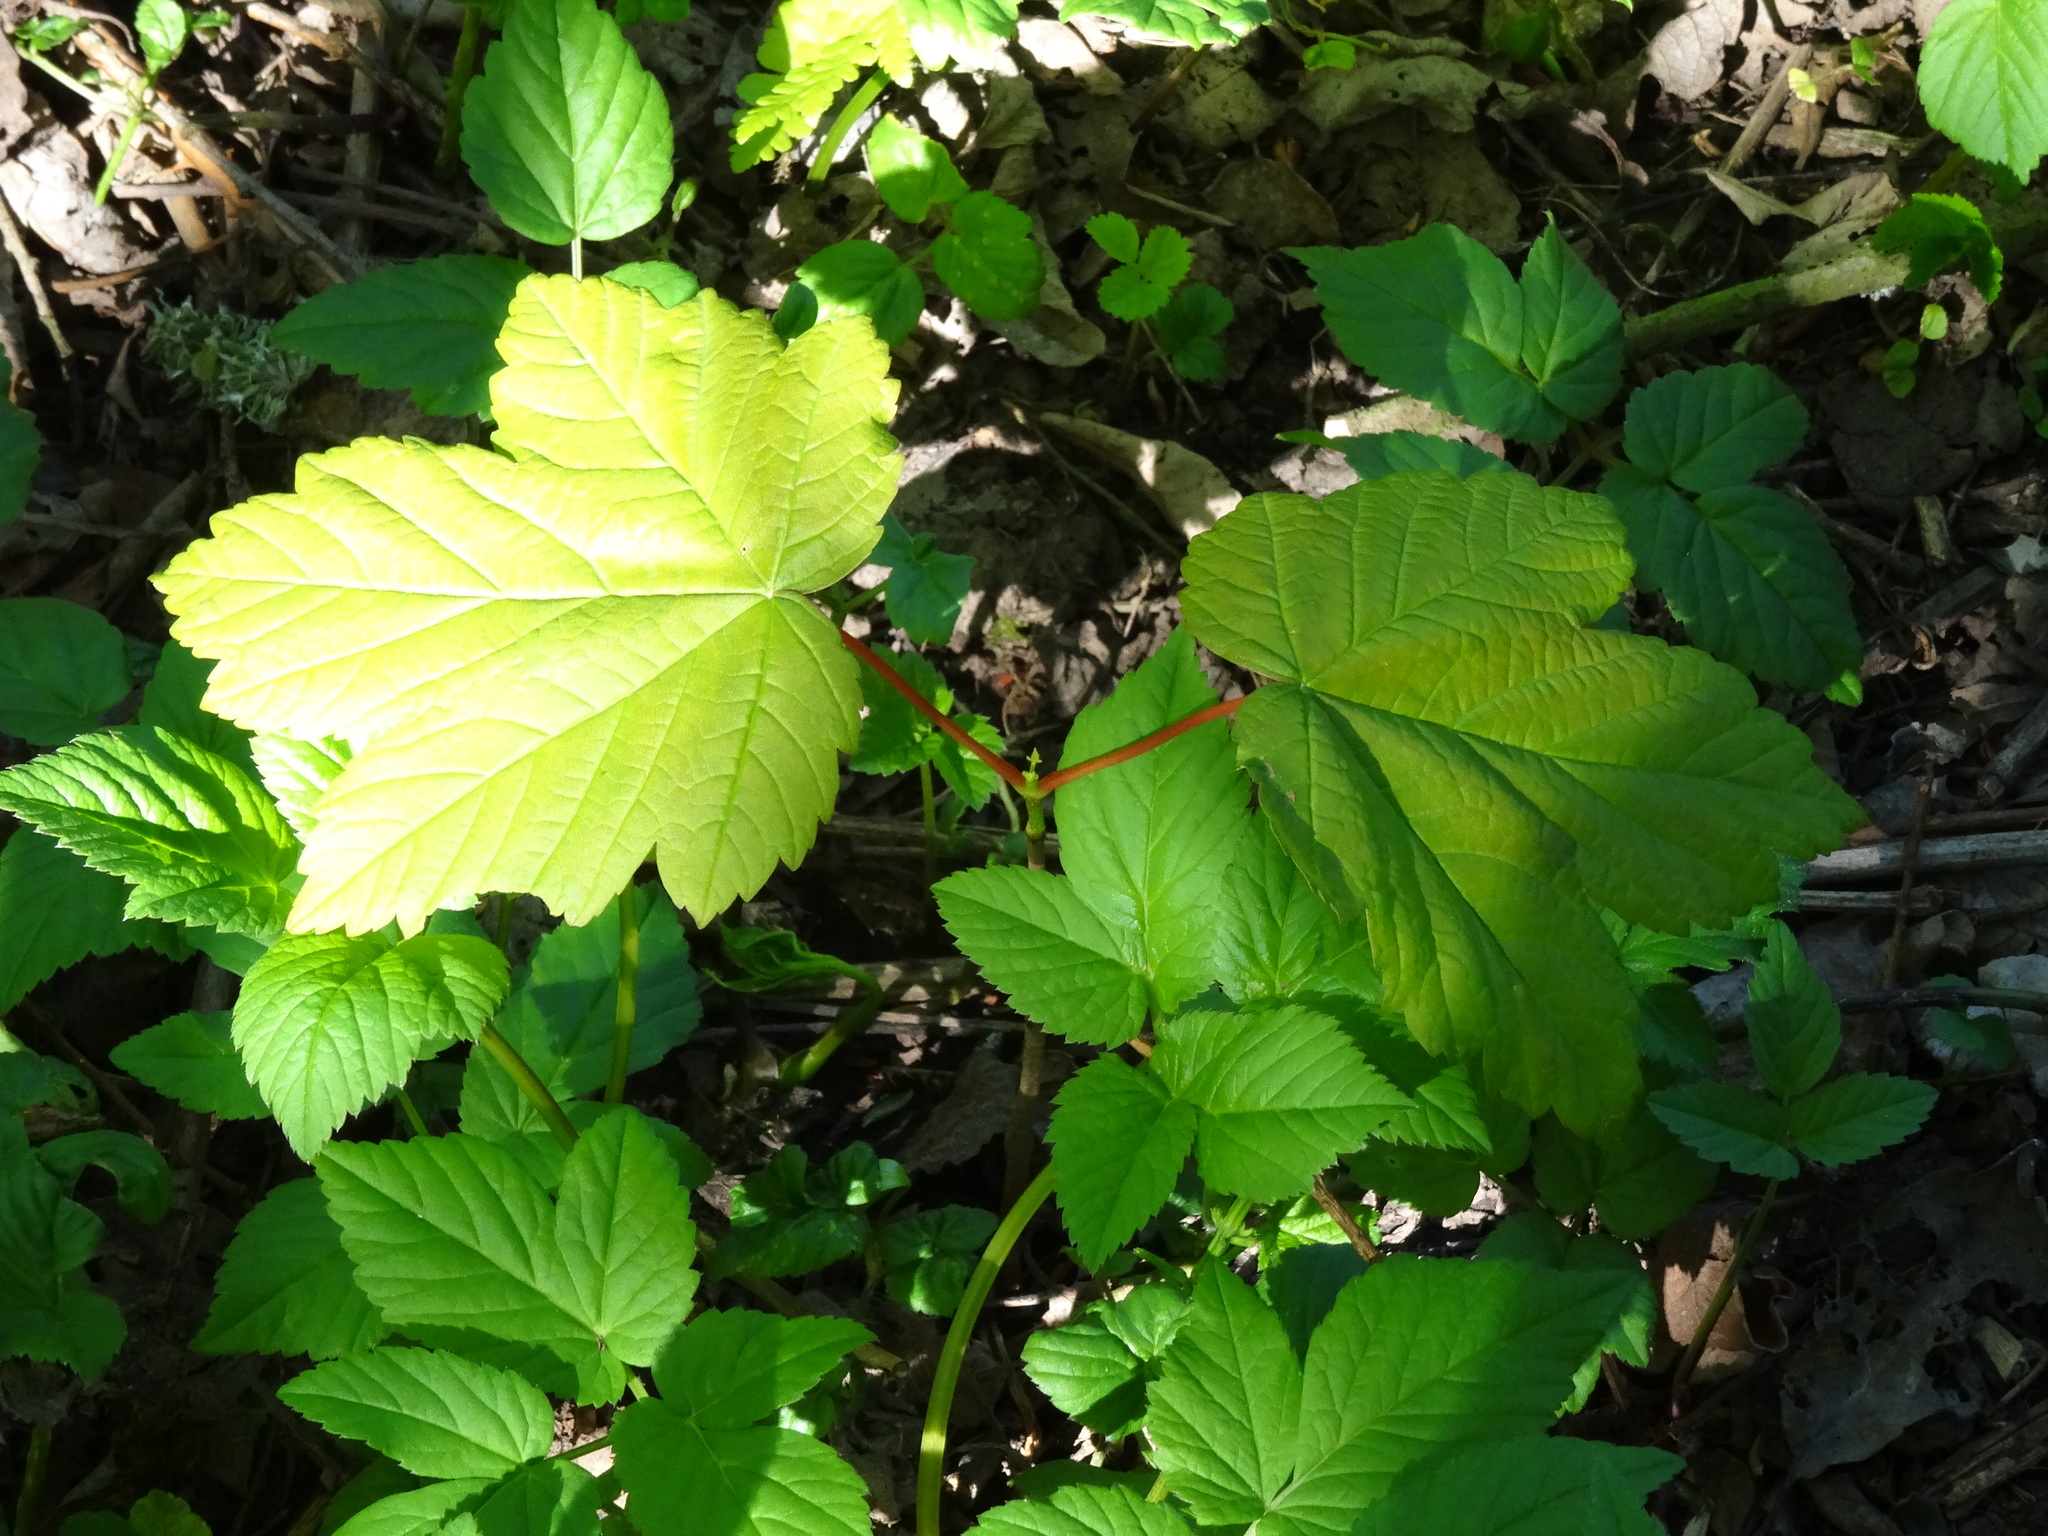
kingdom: Plantae
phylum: Tracheophyta
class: Magnoliopsida
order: Sapindales
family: Sapindaceae
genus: Acer
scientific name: Acer pseudoplatanus
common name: Sycamore
